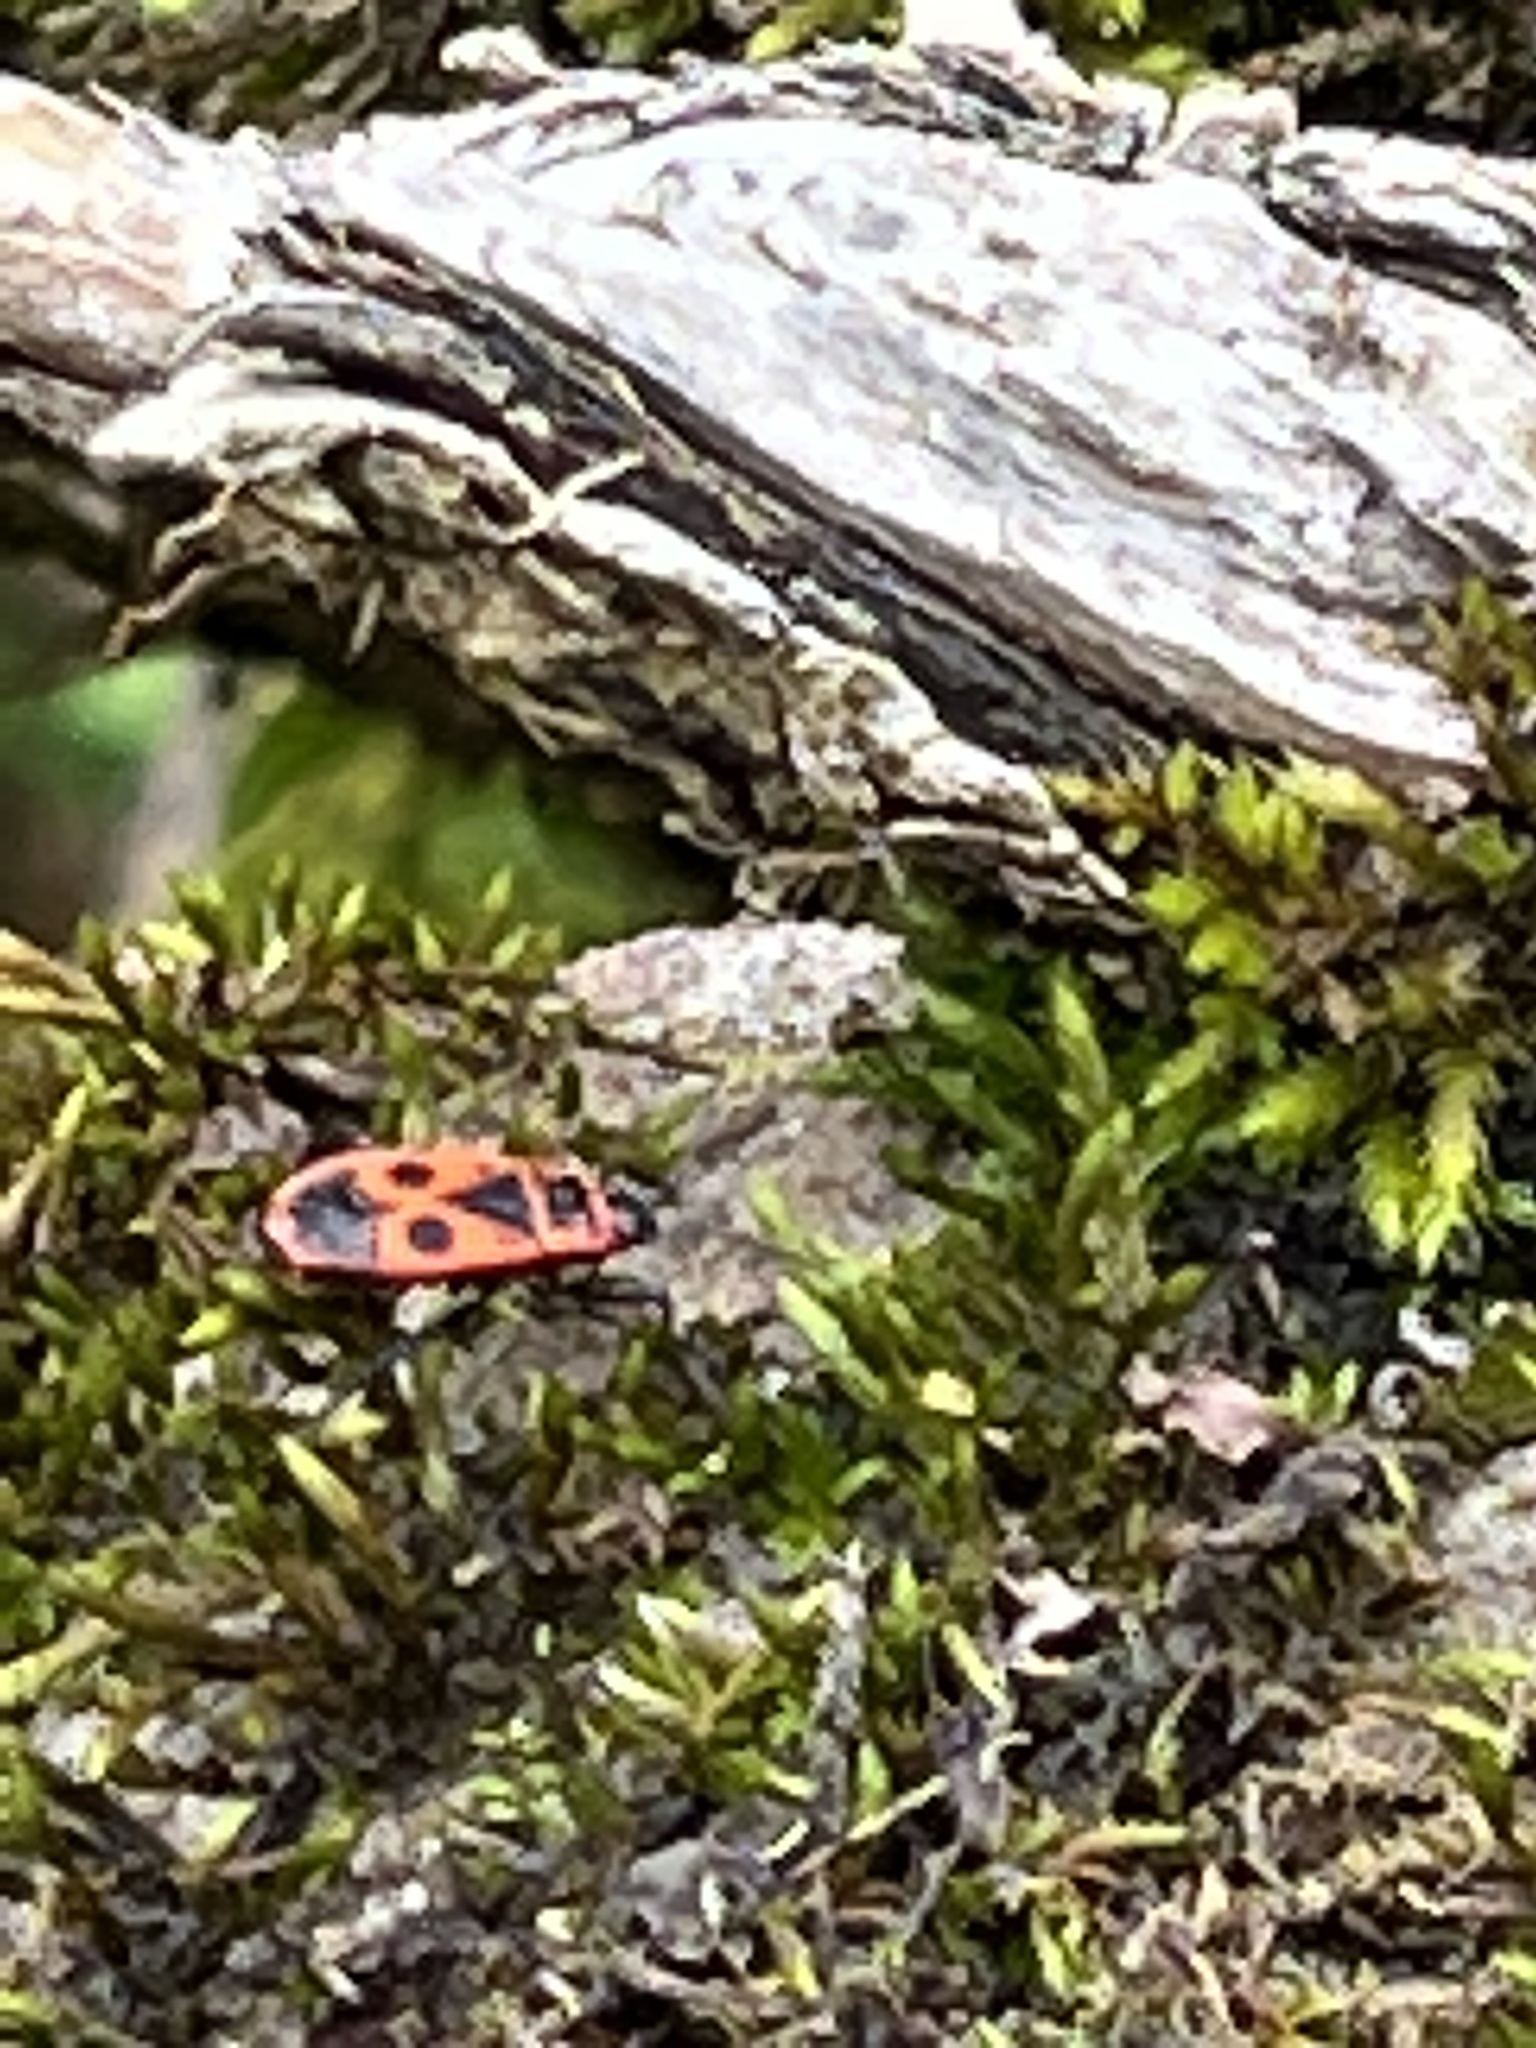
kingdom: Animalia
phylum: Arthropoda
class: Insecta
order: Hemiptera
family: Pyrrhocoridae
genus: Pyrrhocoris
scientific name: Pyrrhocoris apterus
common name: Firebug
